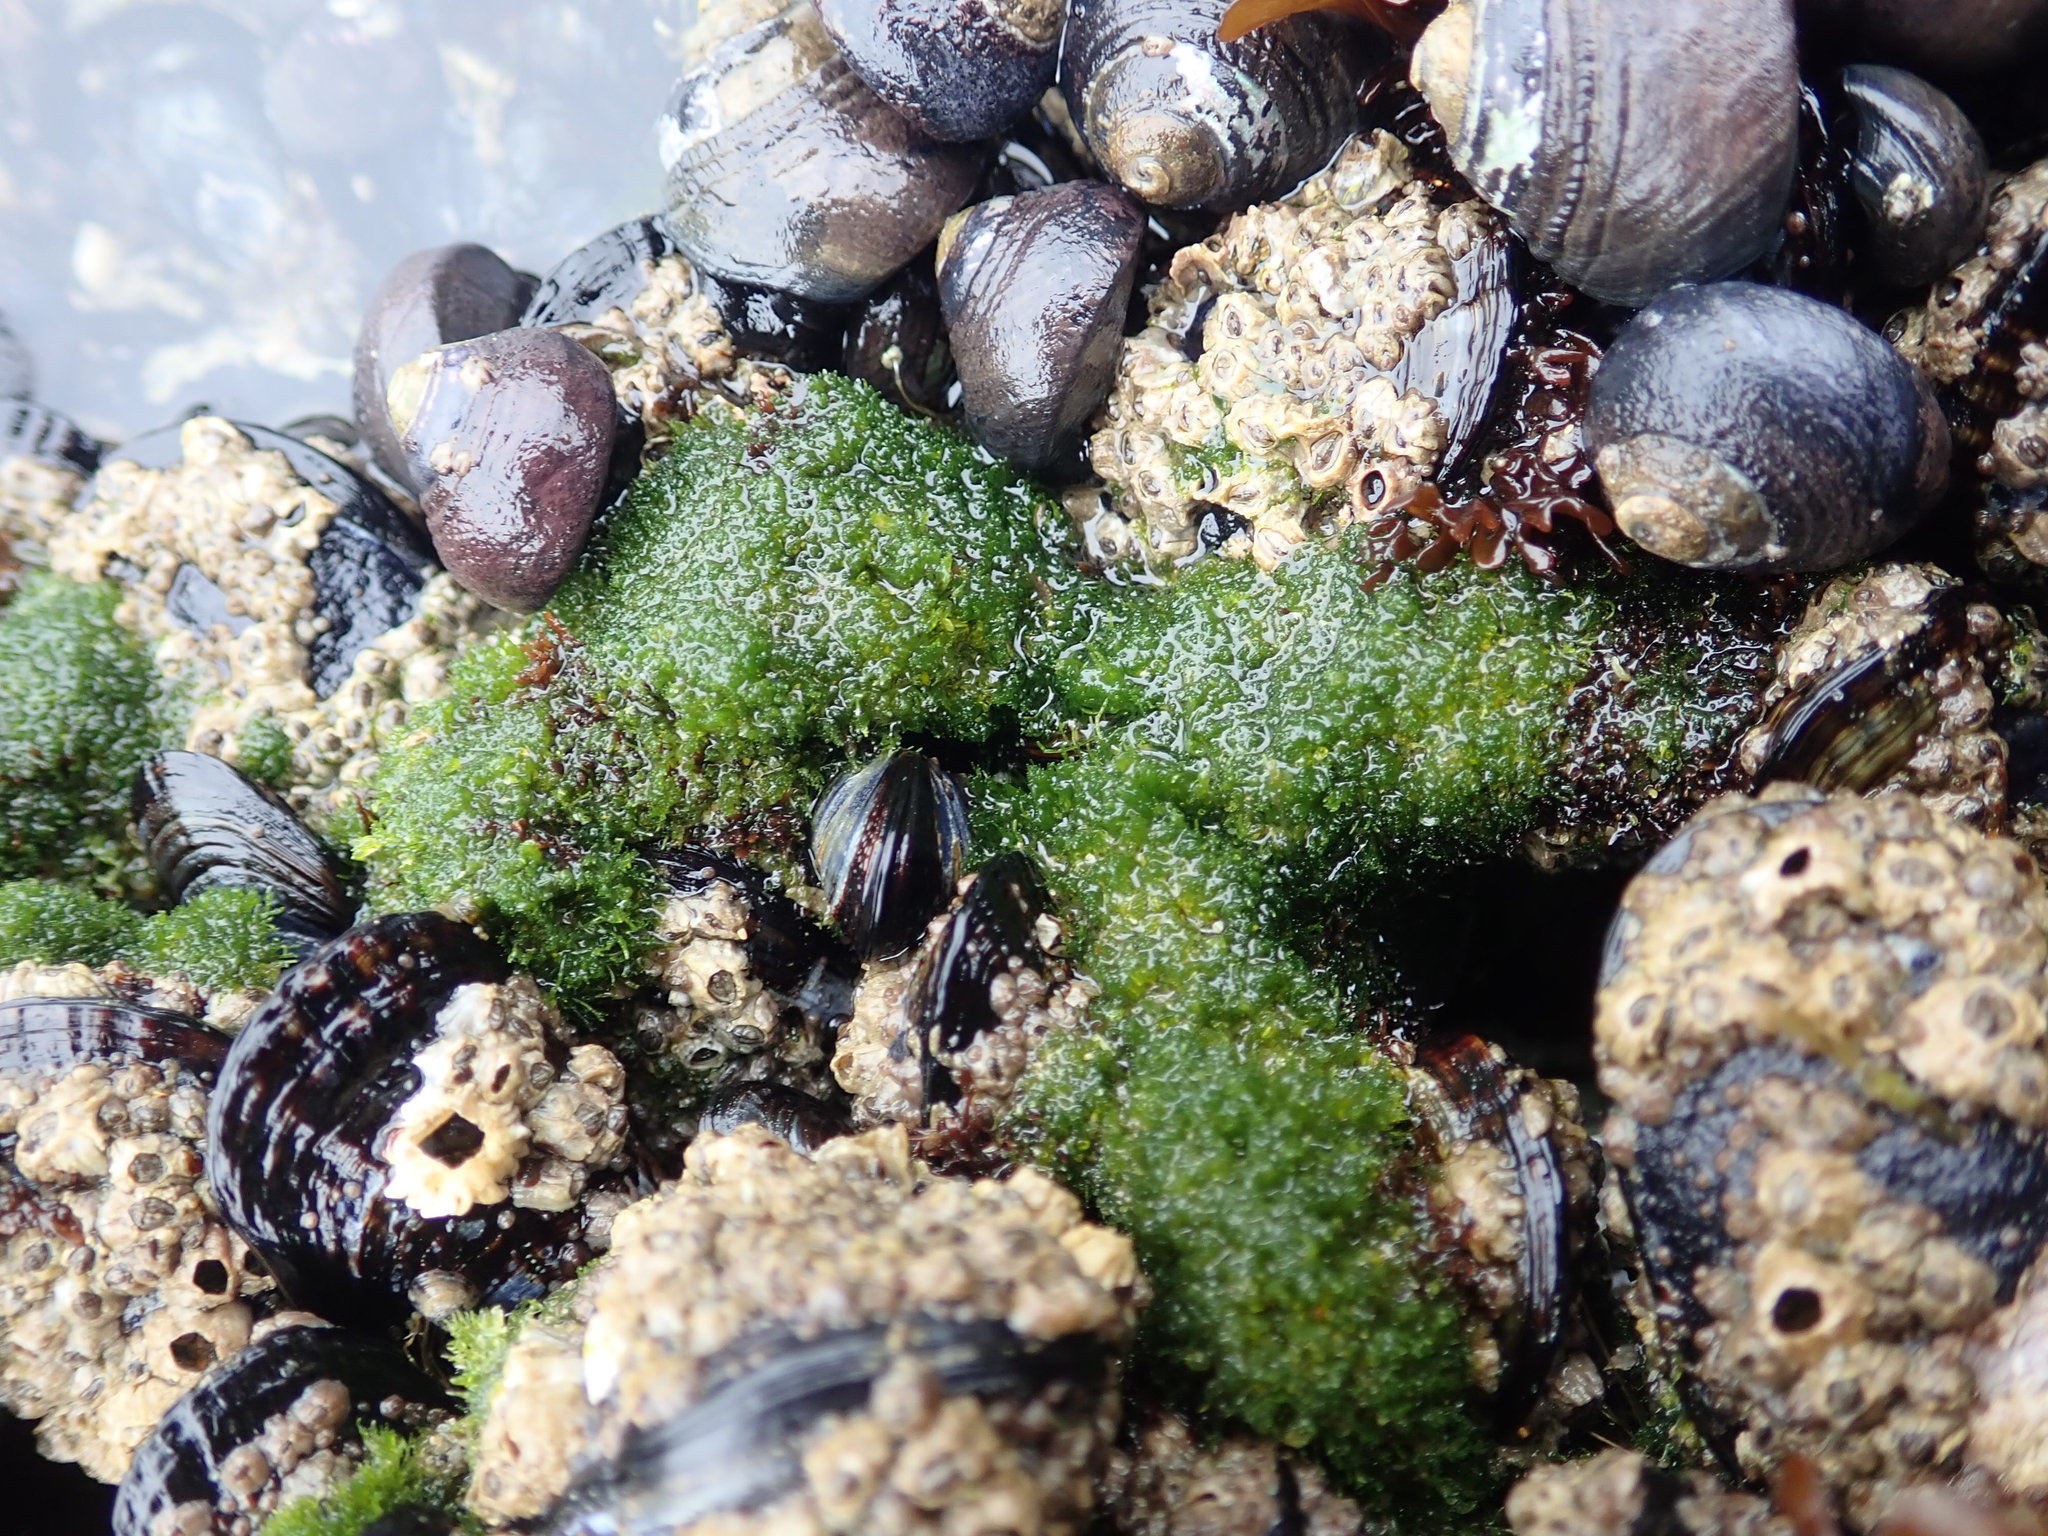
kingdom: Plantae
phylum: Chlorophyta
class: Ulvophyceae
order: Cladophorales
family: Cladophoraceae
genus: Cladophora
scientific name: Cladophora columbiana
